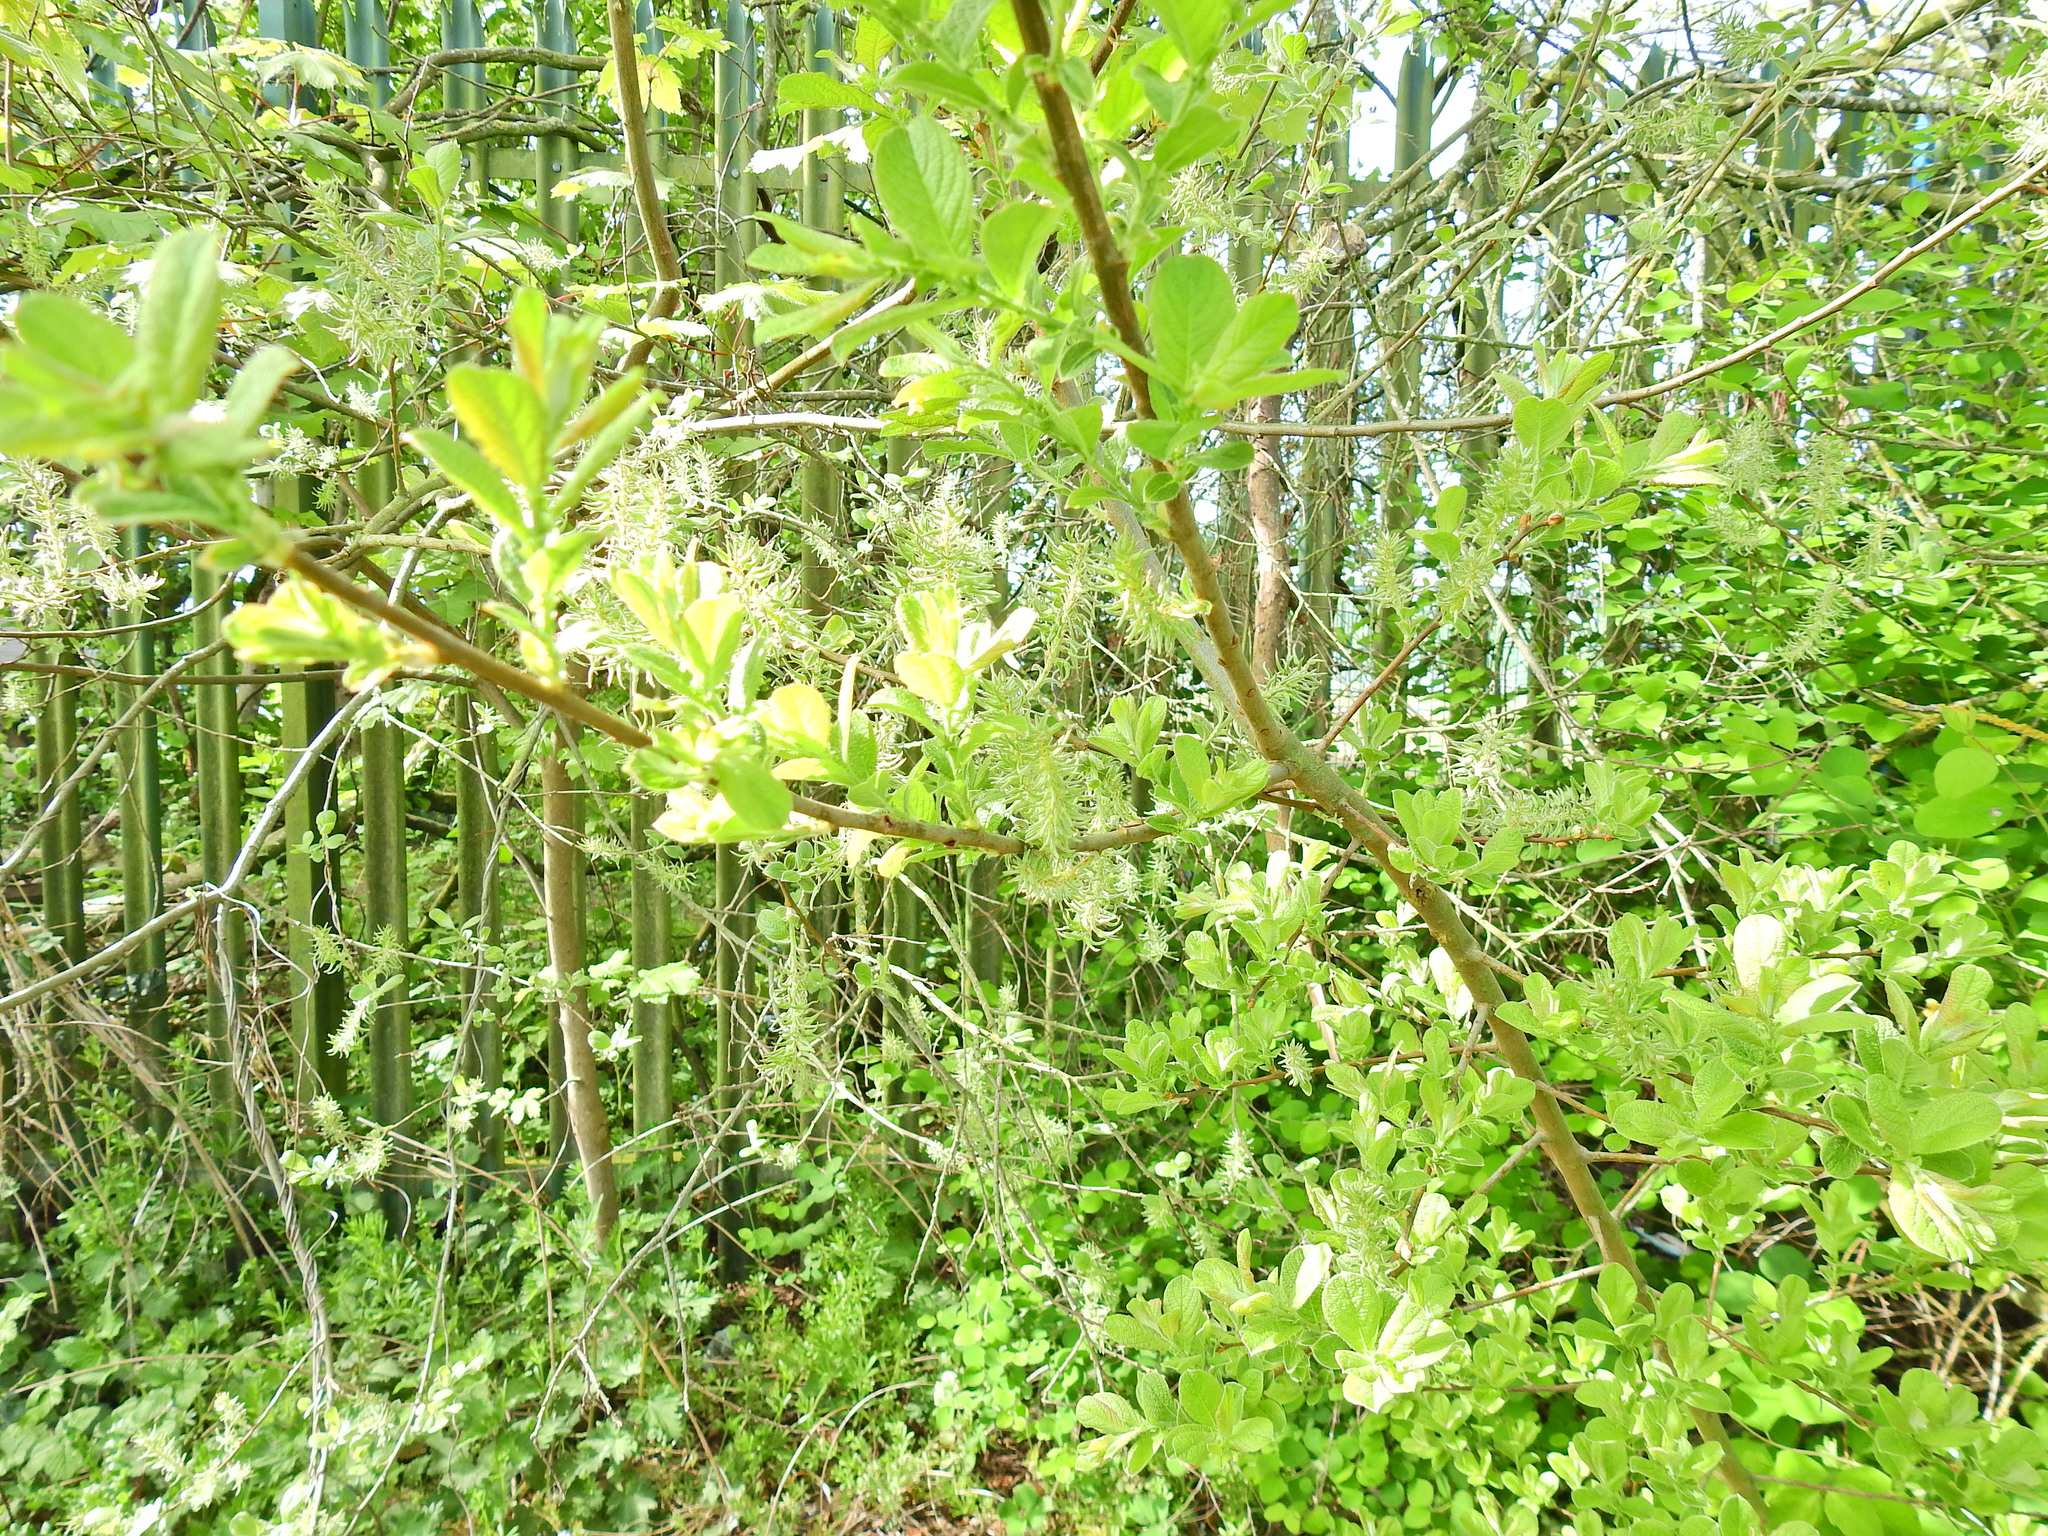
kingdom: Plantae
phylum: Tracheophyta
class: Magnoliopsida
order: Malpighiales
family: Salicaceae
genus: Salix
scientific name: Salix cinerea
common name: Common sallow
